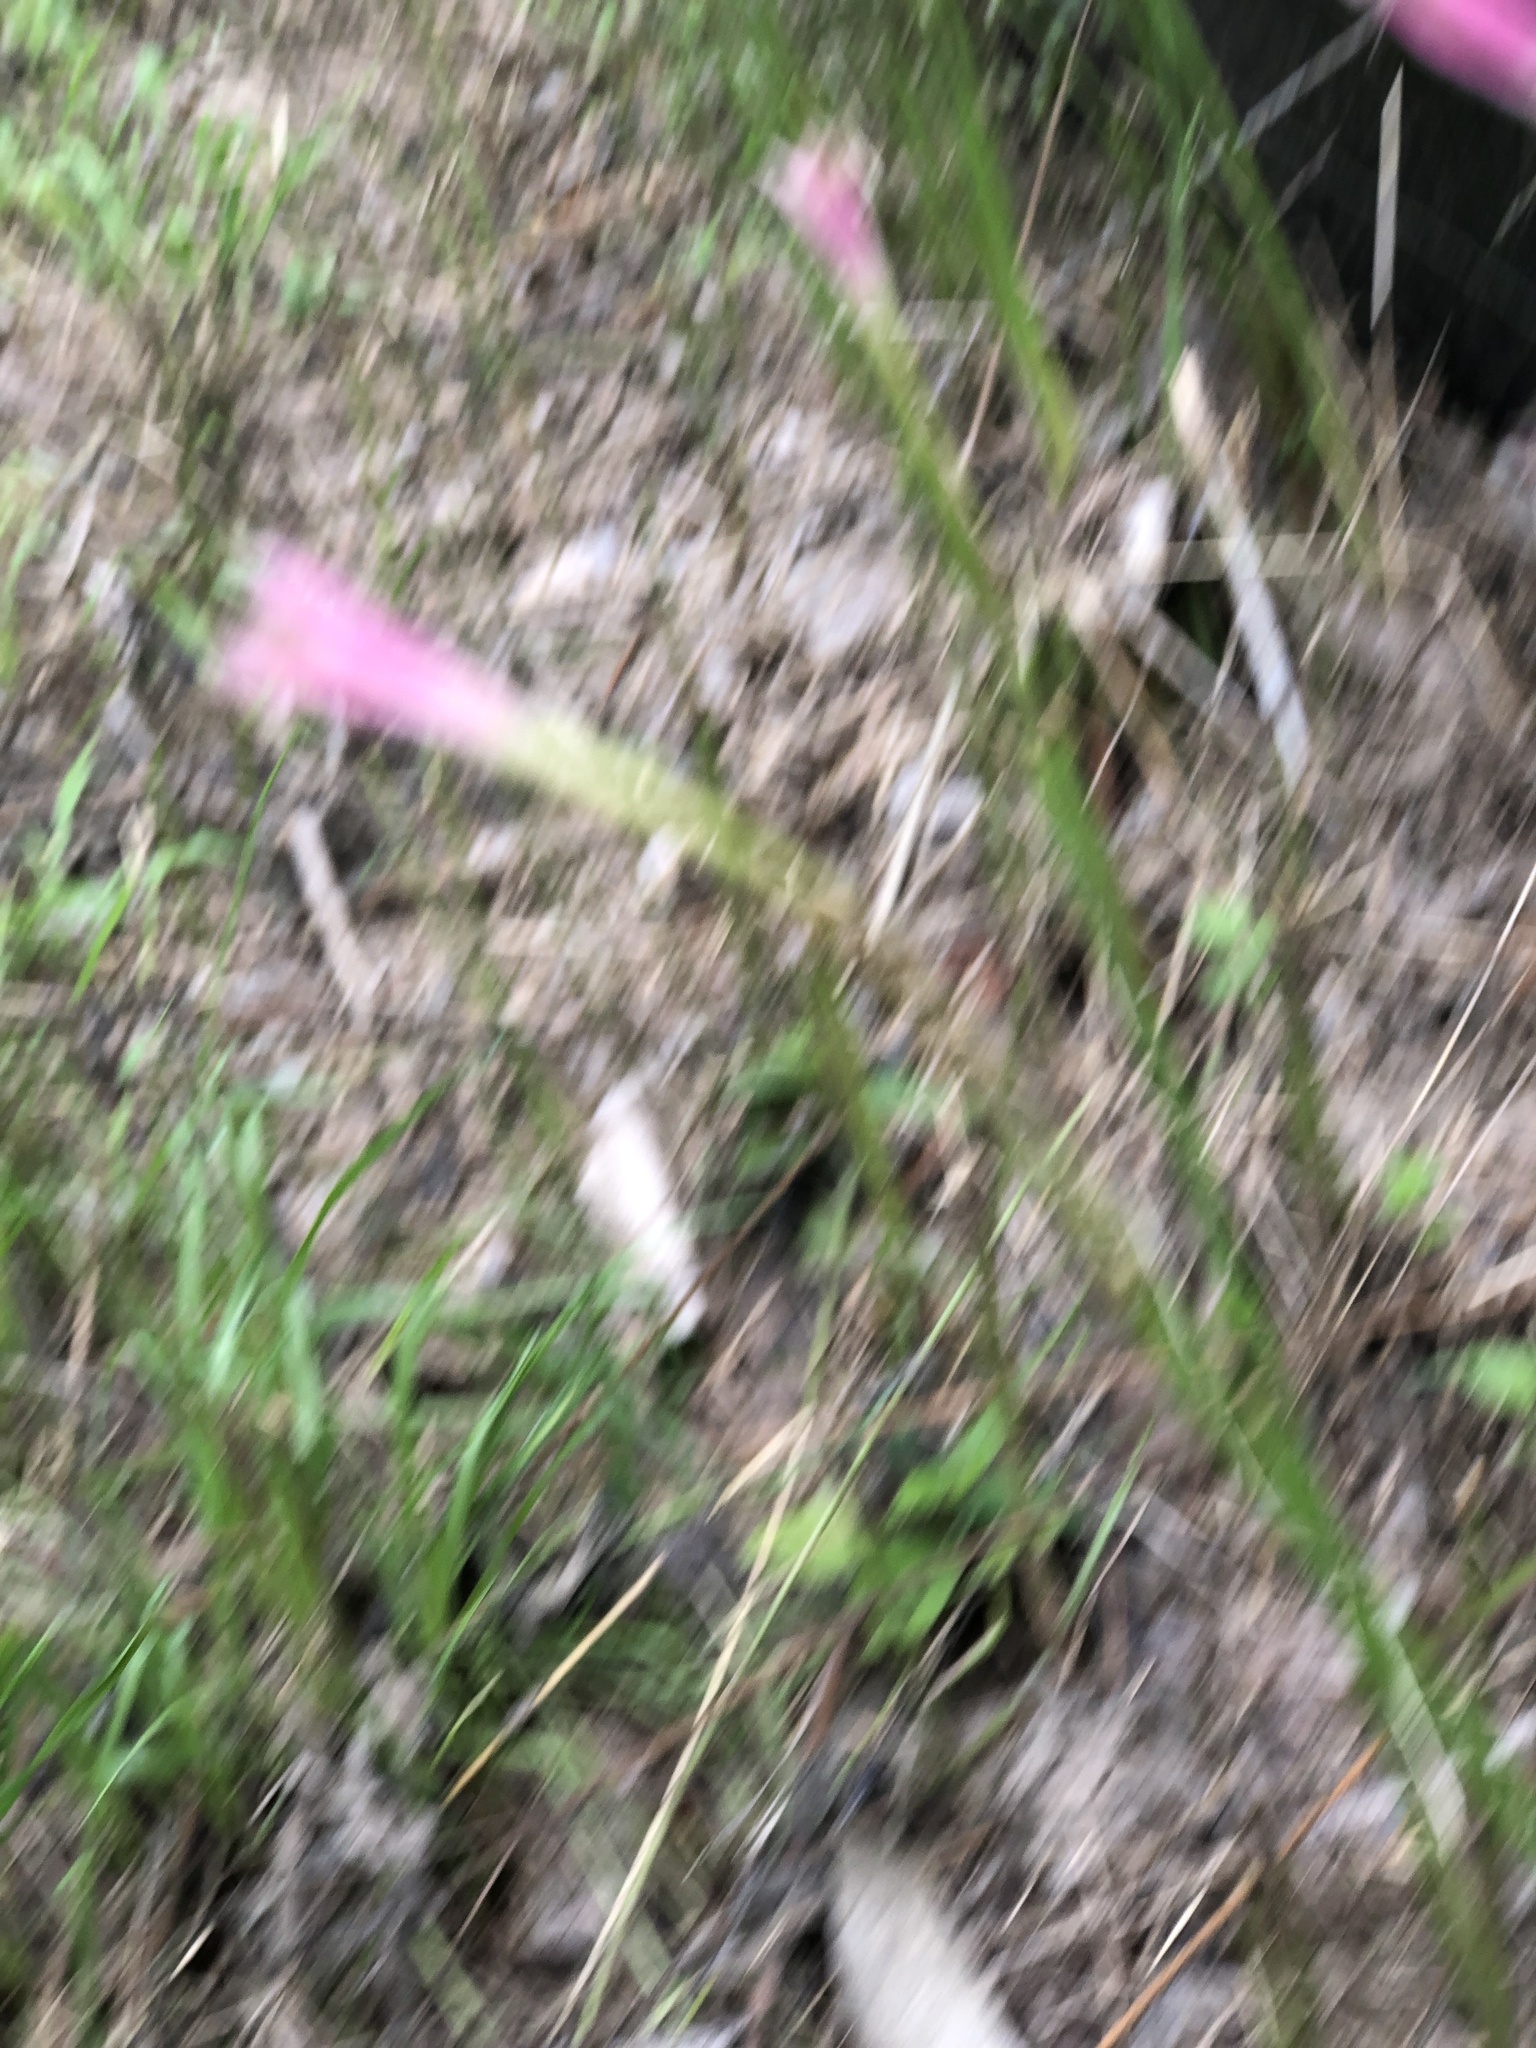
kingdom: Plantae
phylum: Tracheophyta
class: Liliopsida
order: Asparagales
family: Amaryllidaceae
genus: Zephyranthes
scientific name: Zephyranthes chlorosolen
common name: Evening rain-lily
